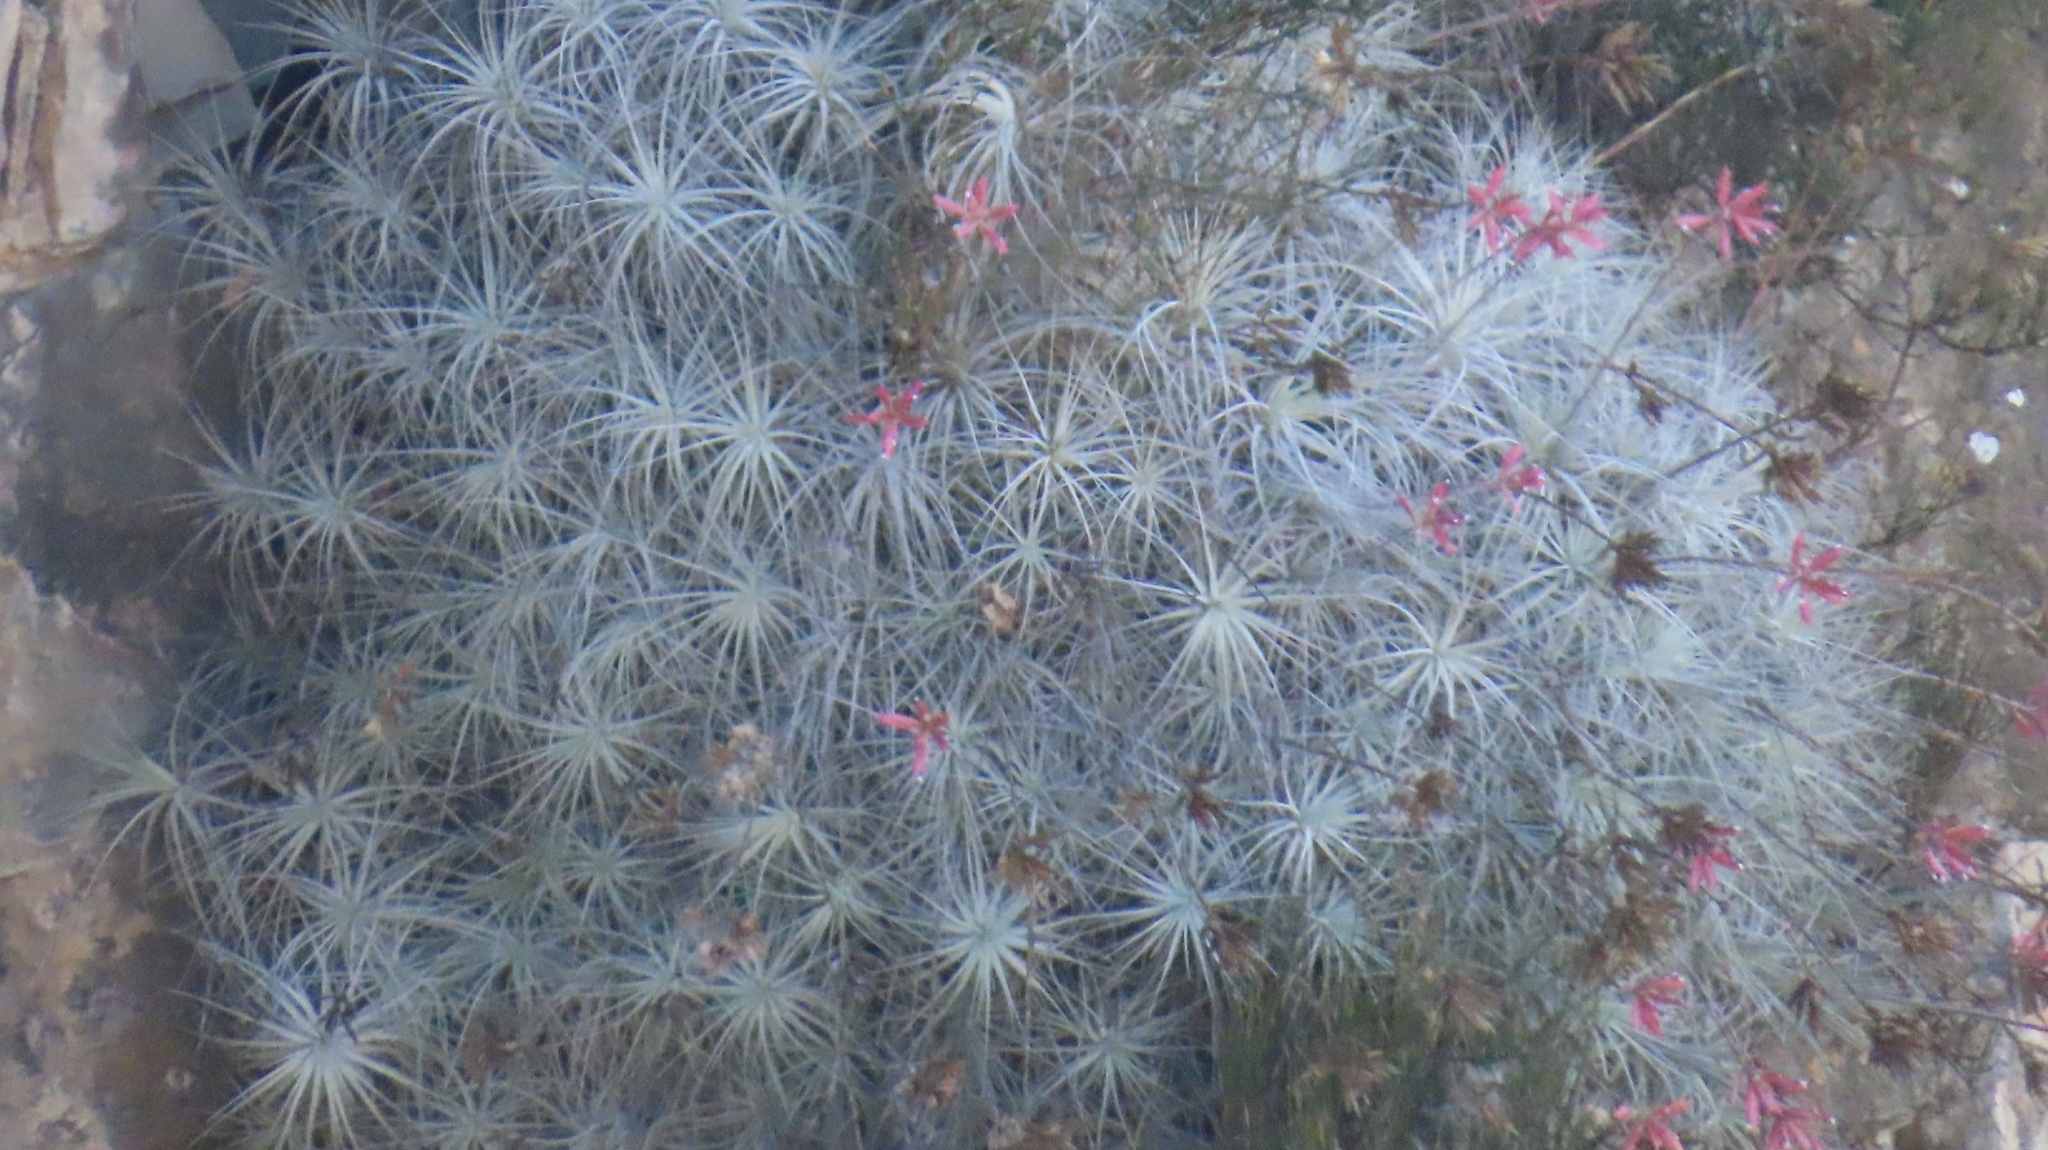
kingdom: Plantae
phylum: Tracheophyta
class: Liliopsida
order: Poales
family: Bromeliaceae
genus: Tillandsia
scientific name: Tillandsia tectorum
